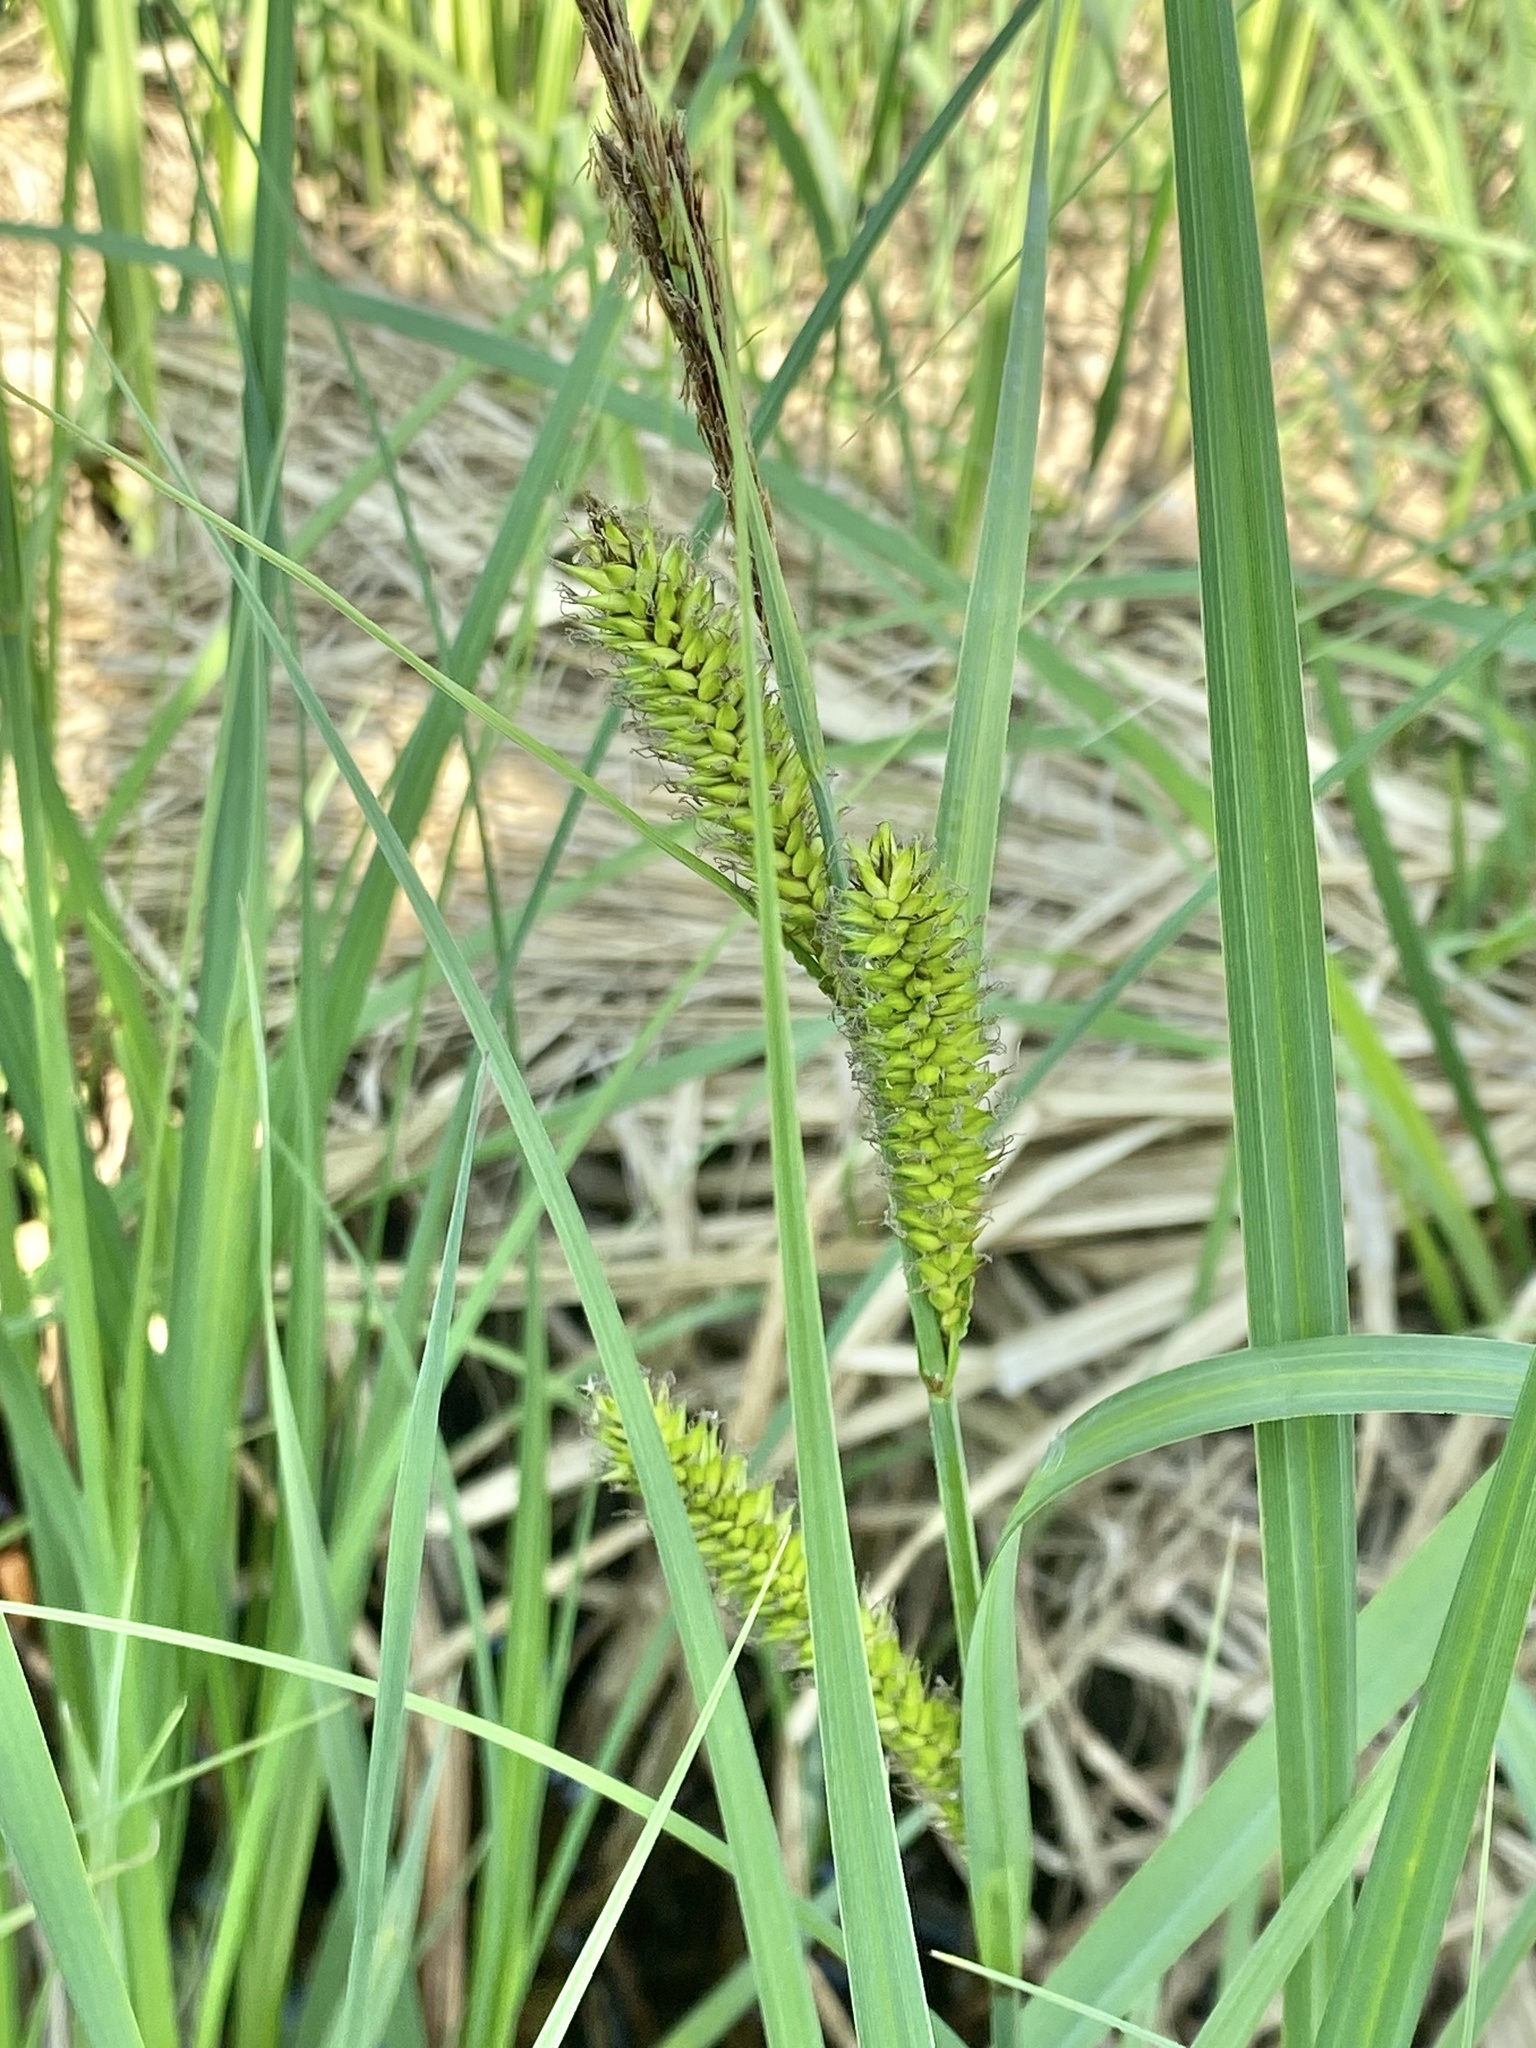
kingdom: Plantae
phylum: Tracheophyta
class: Liliopsida
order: Poales
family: Cyperaceae
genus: Carex
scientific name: Carex lacustris
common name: Common lake sedge
